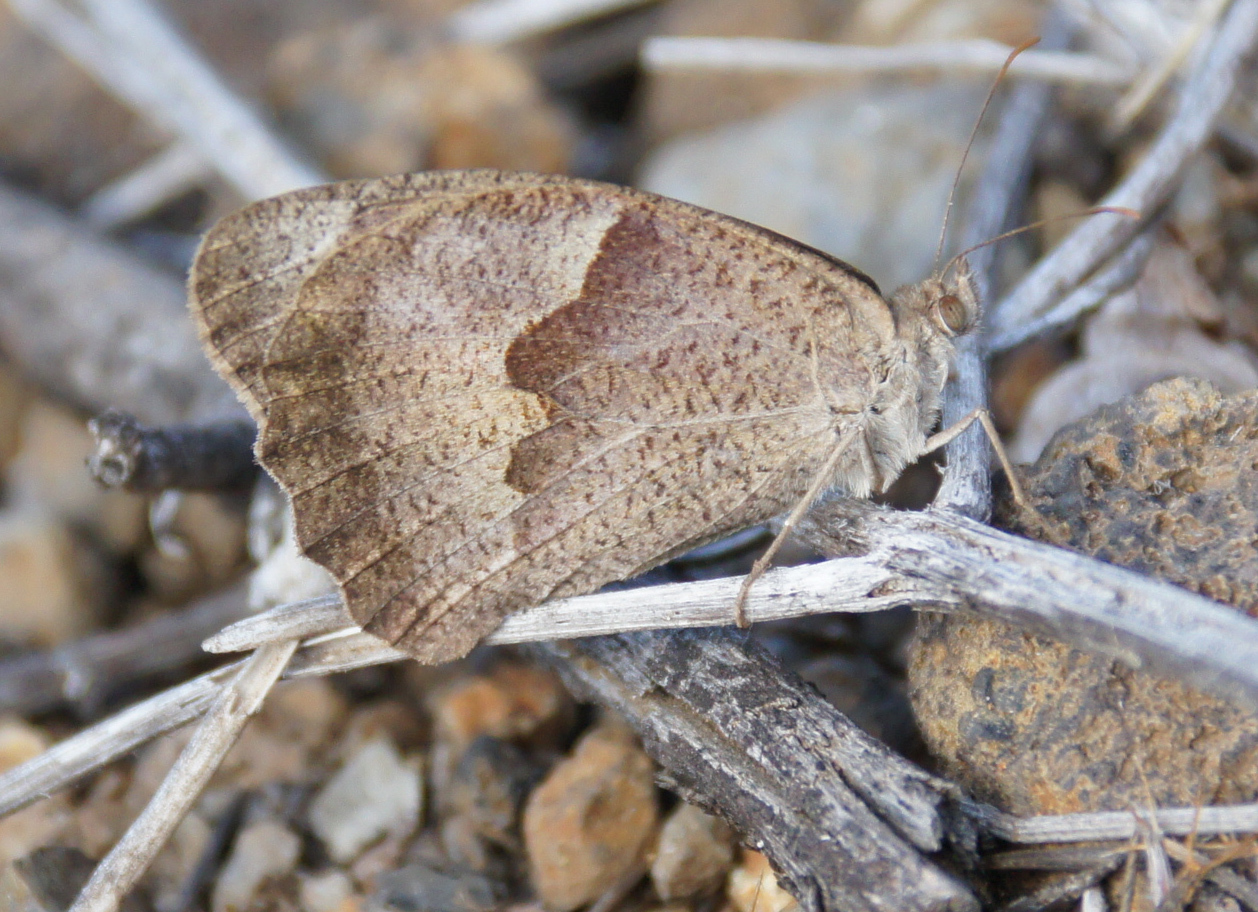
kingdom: Animalia
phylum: Arthropoda
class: Insecta
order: Lepidoptera
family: Nymphalidae
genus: Maniola
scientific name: Maniola jurtina
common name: Meadow brown
